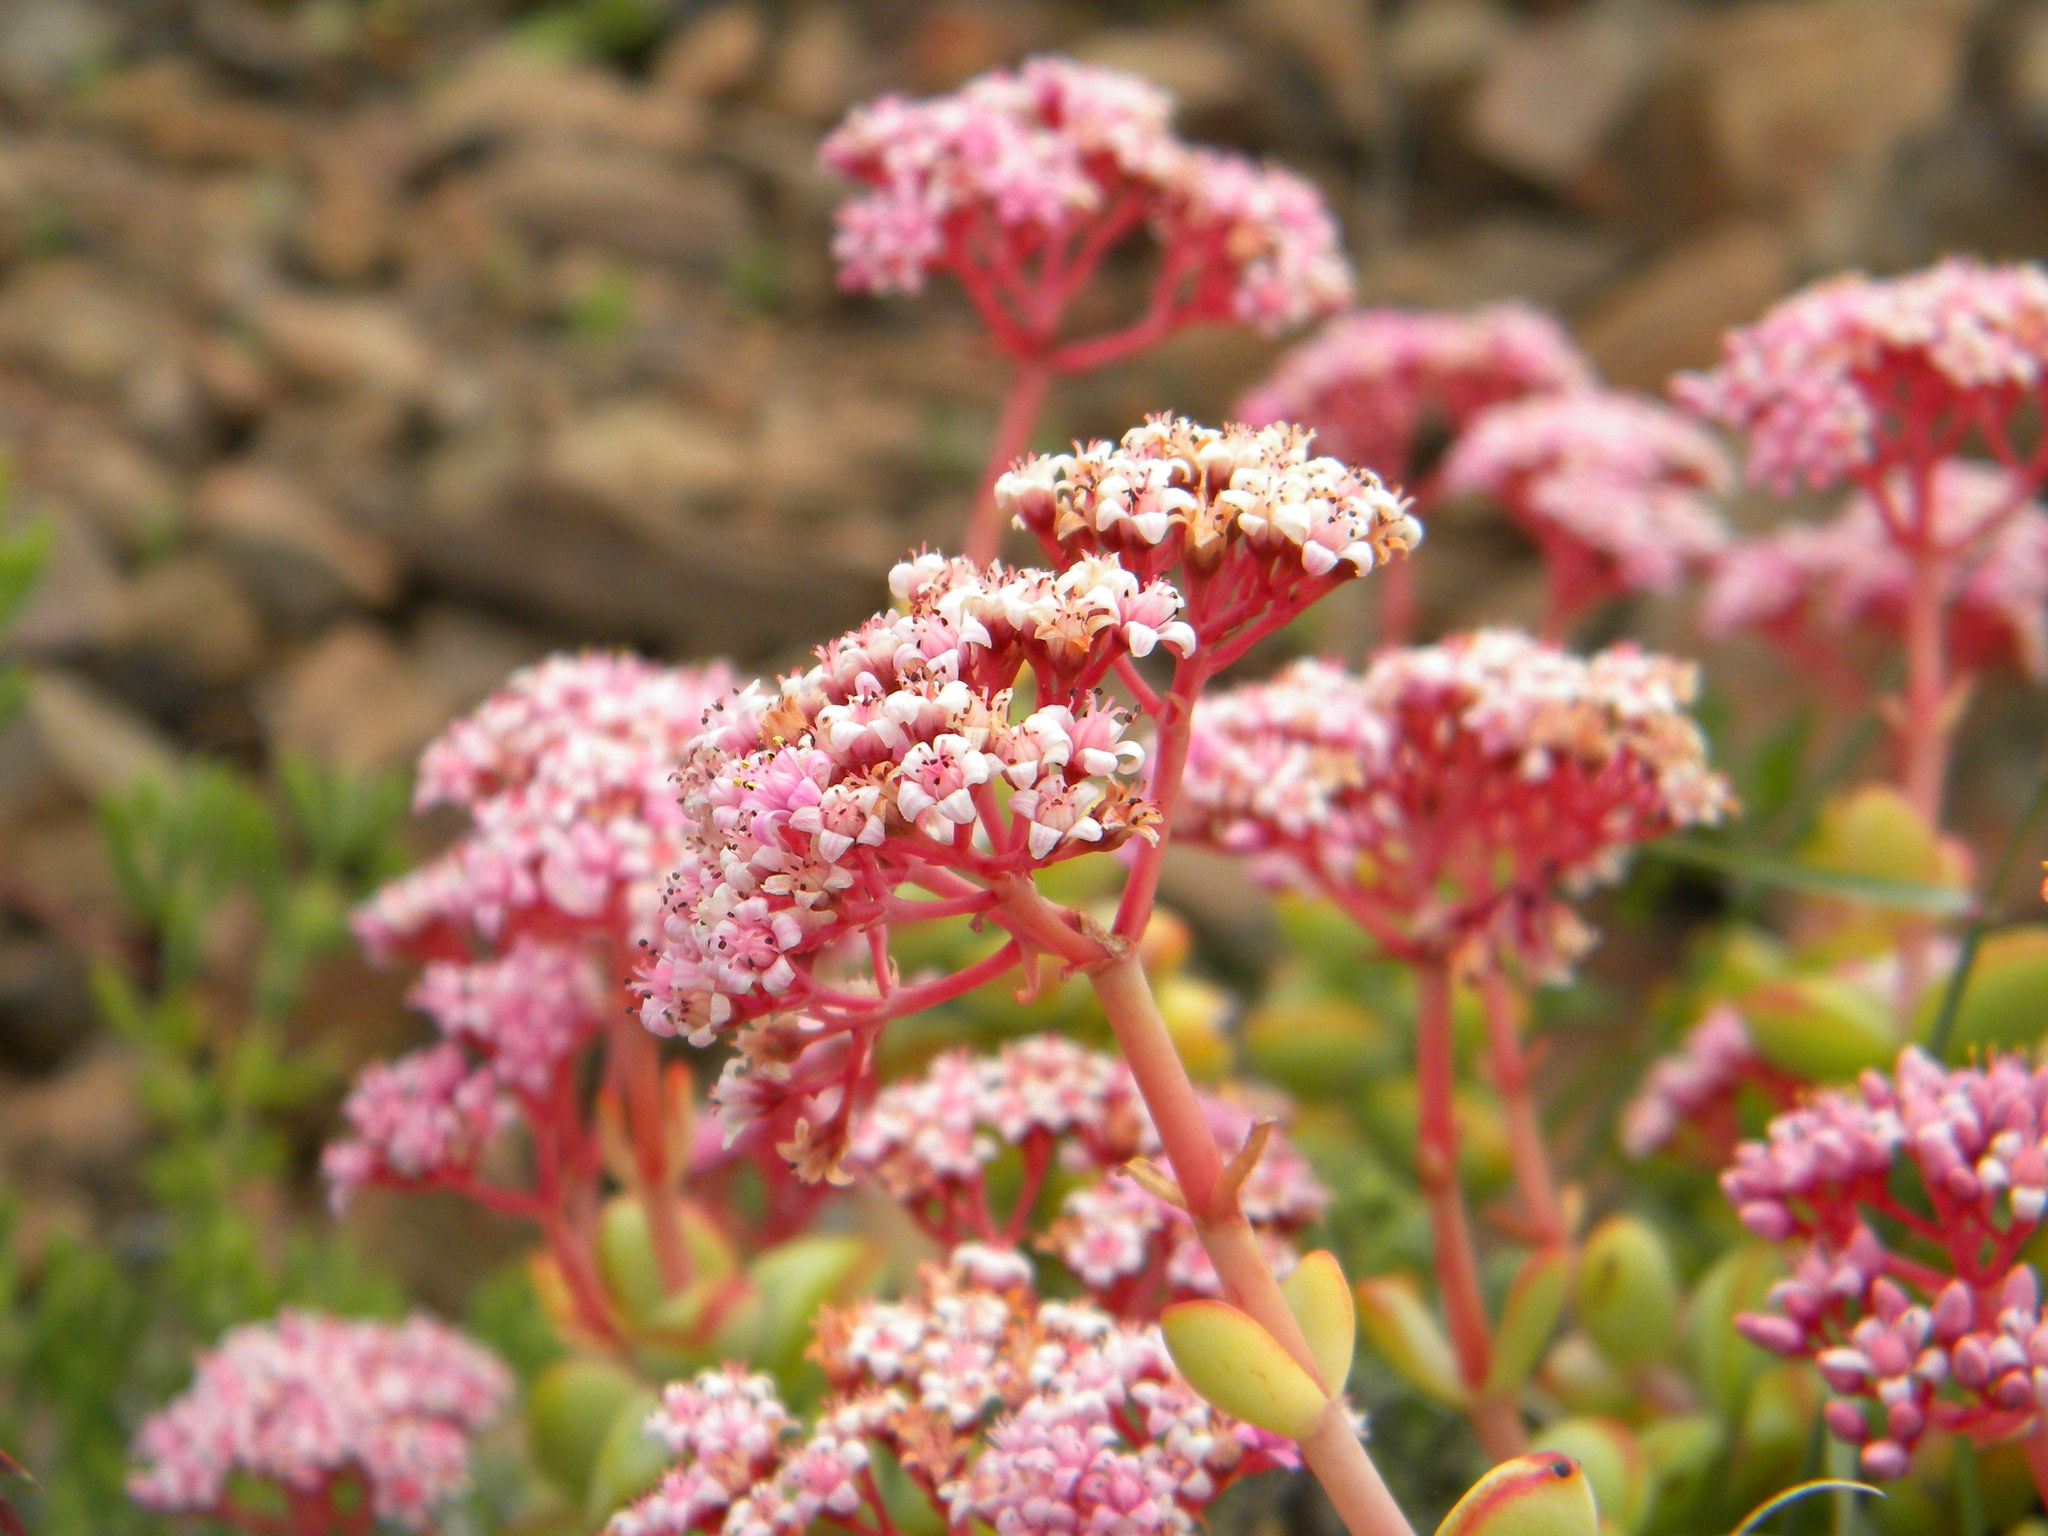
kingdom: Plantae
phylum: Tracheophyta
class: Magnoliopsida
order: Saxifragales
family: Crassulaceae
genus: Crassula
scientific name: Crassula rupestris
